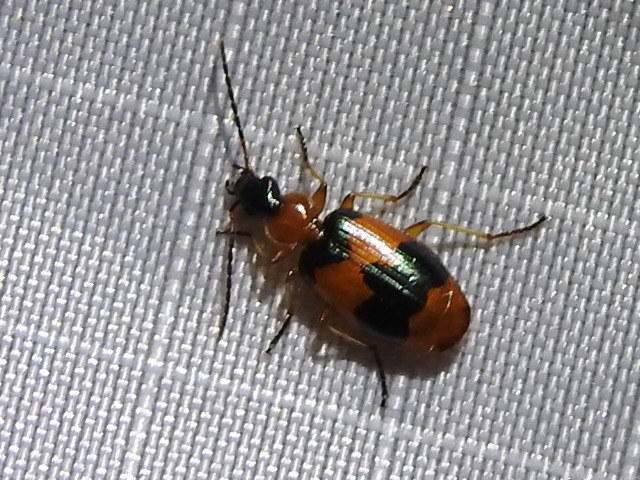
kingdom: Animalia
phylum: Arthropoda
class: Insecta
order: Coleoptera
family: Carabidae
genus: Lebia
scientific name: Lebia pulchella
